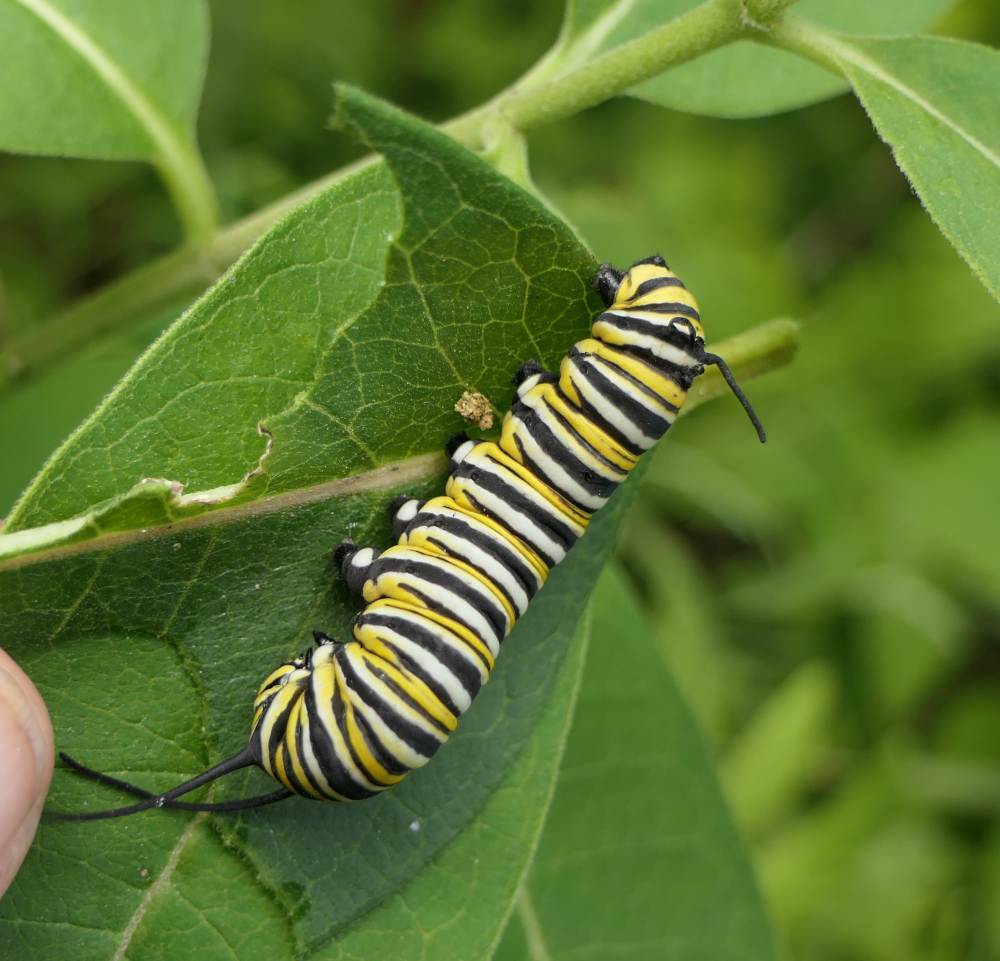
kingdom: Animalia
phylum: Arthropoda
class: Insecta
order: Lepidoptera
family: Nymphalidae
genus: Danaus
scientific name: Danaus plexippus
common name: Monarch
